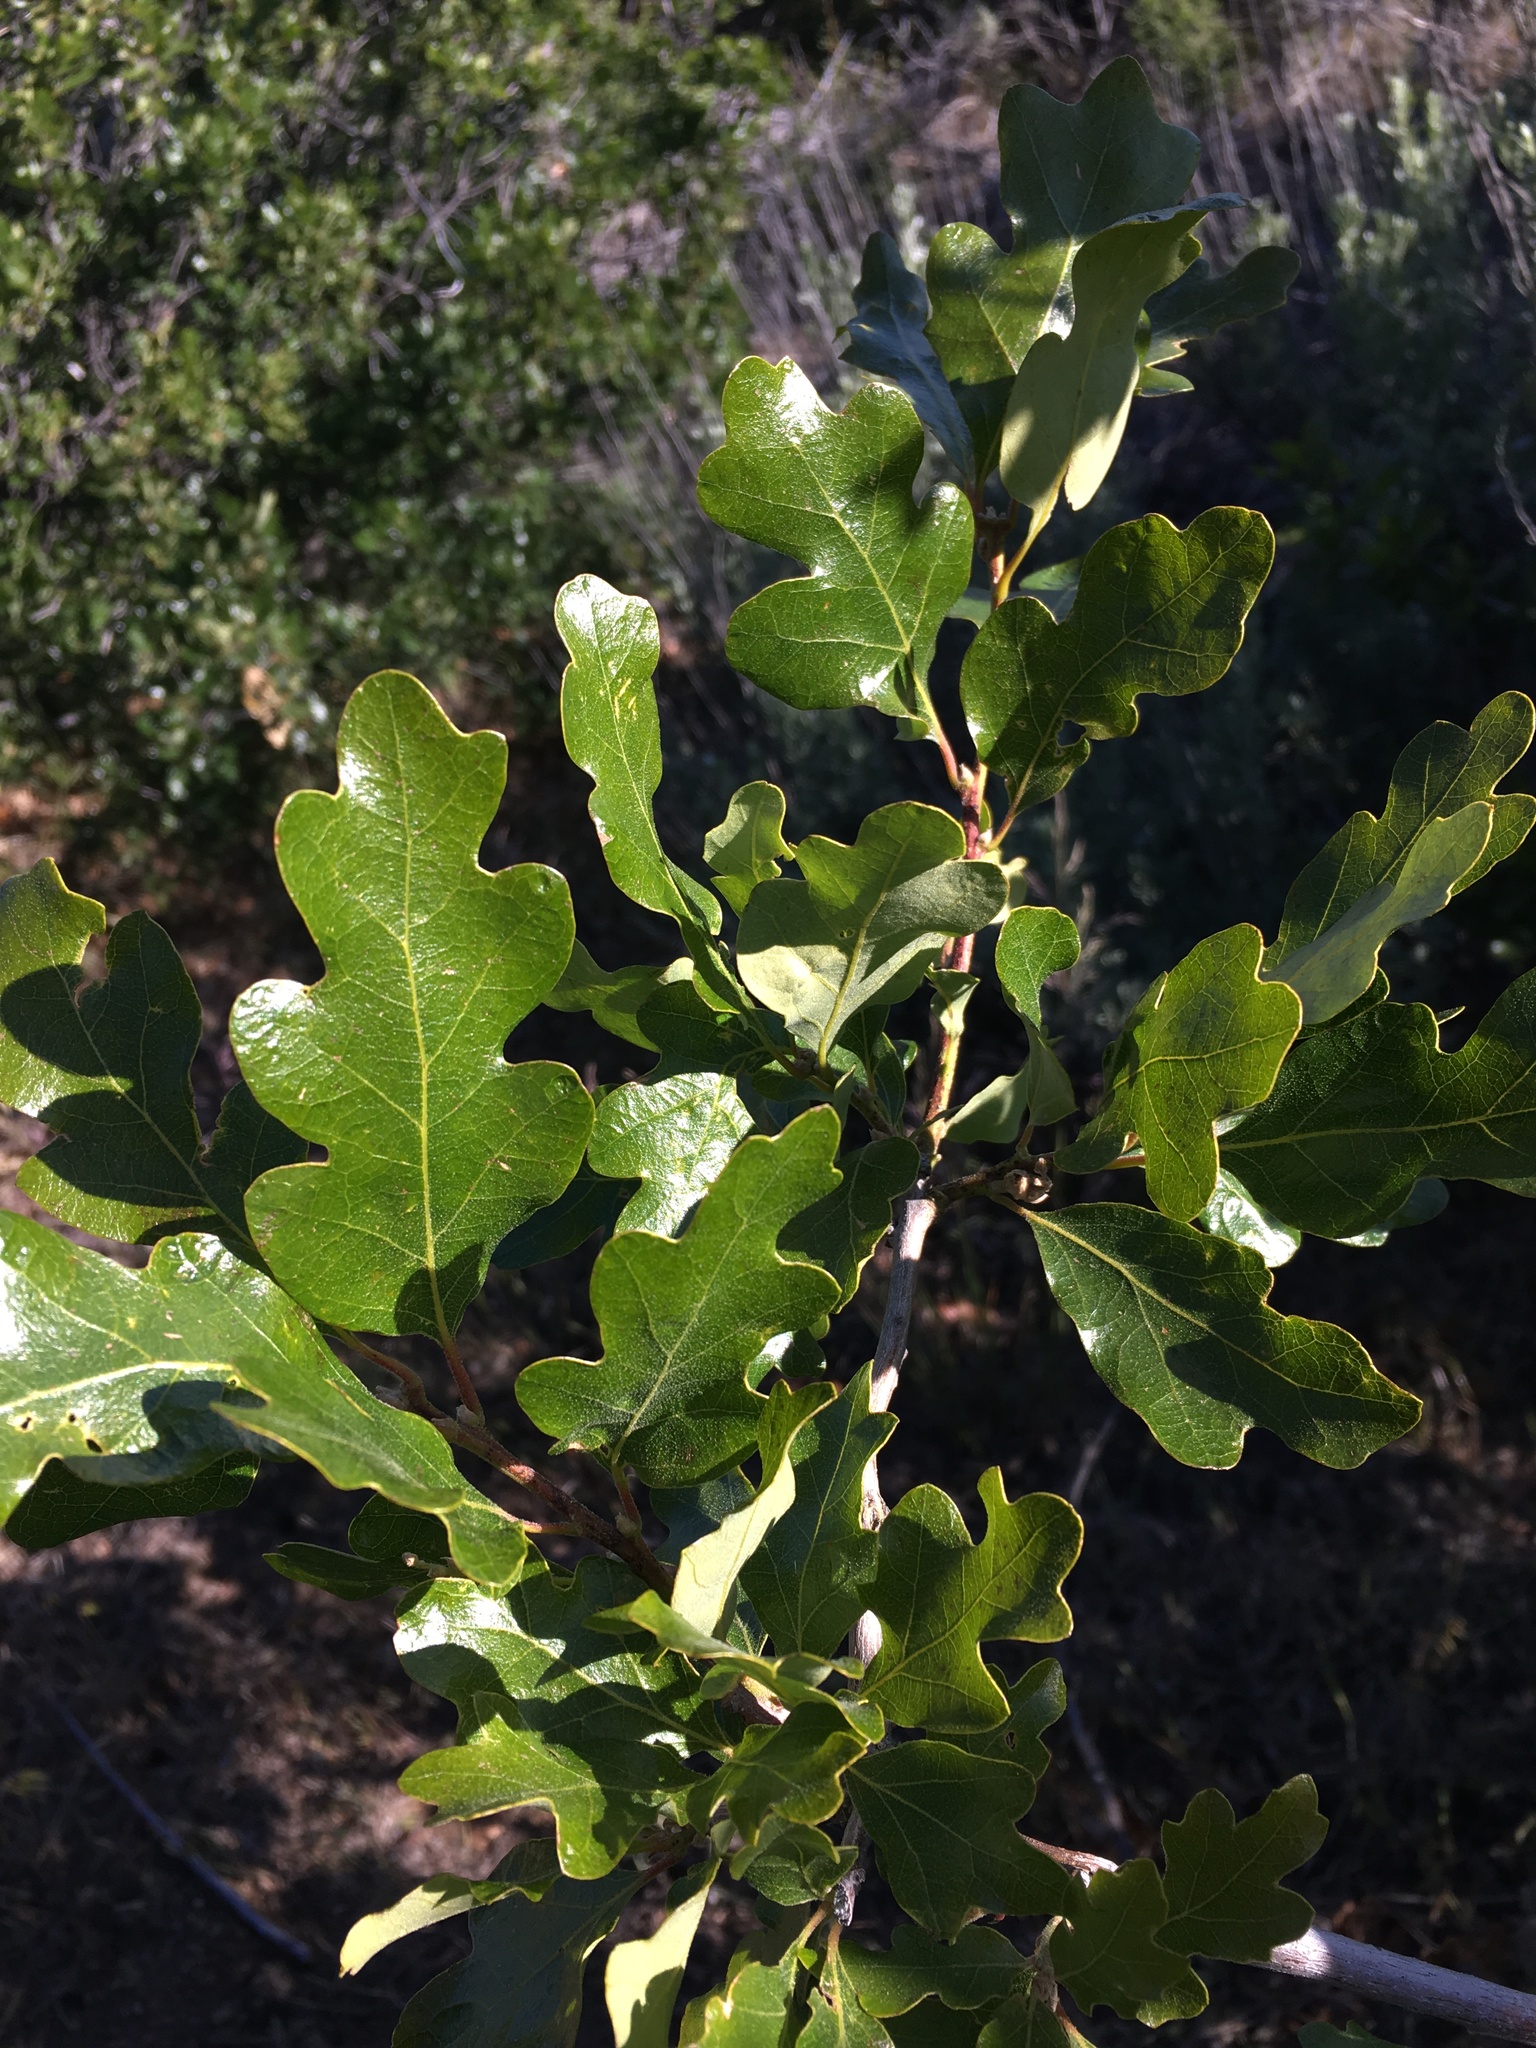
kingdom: Plantae
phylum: Tracheophyta
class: Magnoliopsida
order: Fagales
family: Fagaceae
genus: Quercus
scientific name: Quercus garryana
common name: Garry oak
